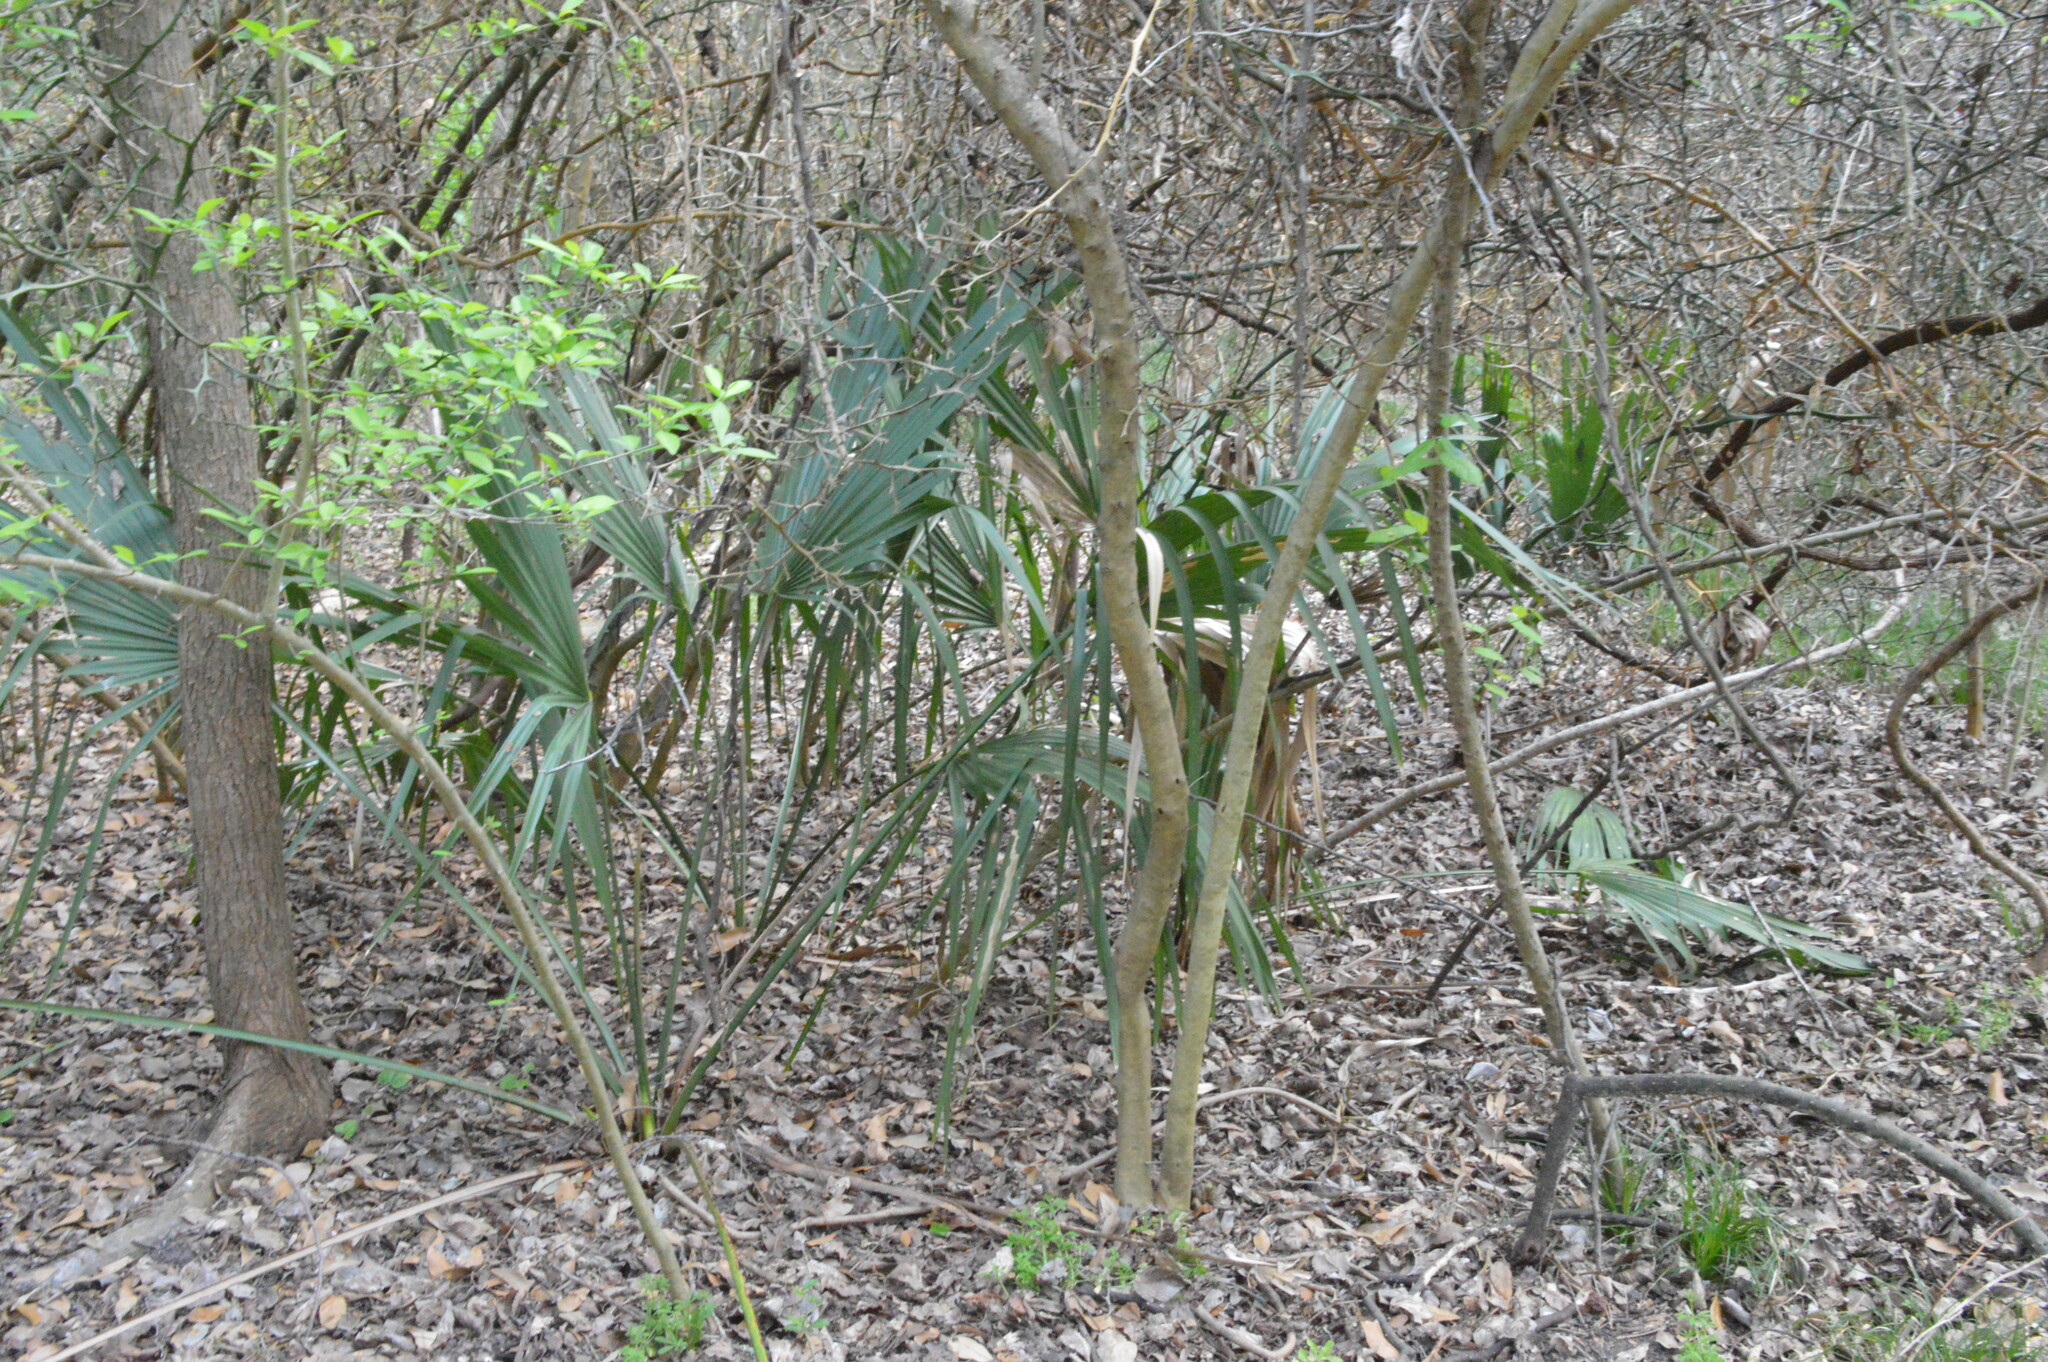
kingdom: Plantae
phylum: Tracheophyta
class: Liliopsida
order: Arecales
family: Arecaceae
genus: Sabal
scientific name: Sabal minor
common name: Dwarf palmetto
